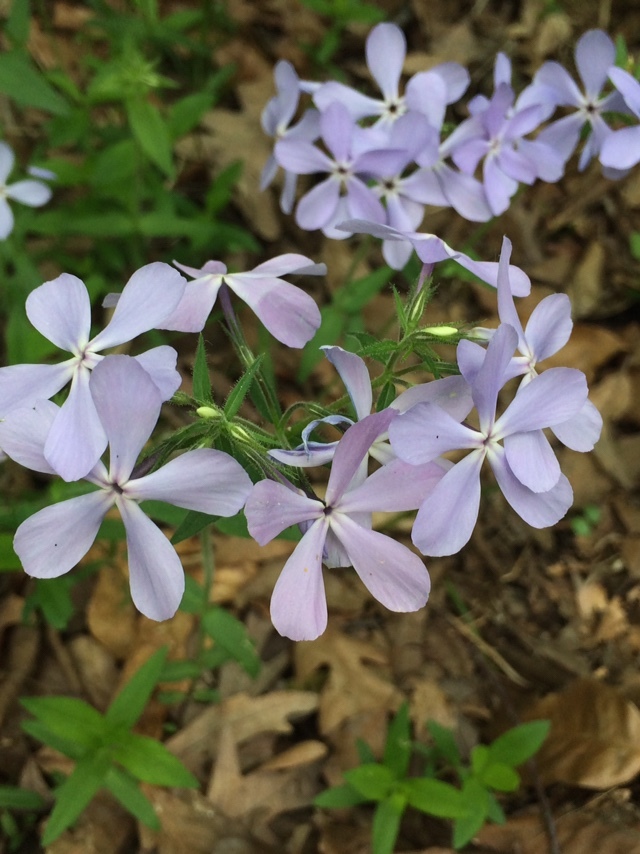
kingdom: Plantae
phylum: Tracheophyta
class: Magnoliopsida
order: Ericales
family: Polemoniaceae
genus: Phlox
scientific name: Phlox divaricata
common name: Blue phlox
